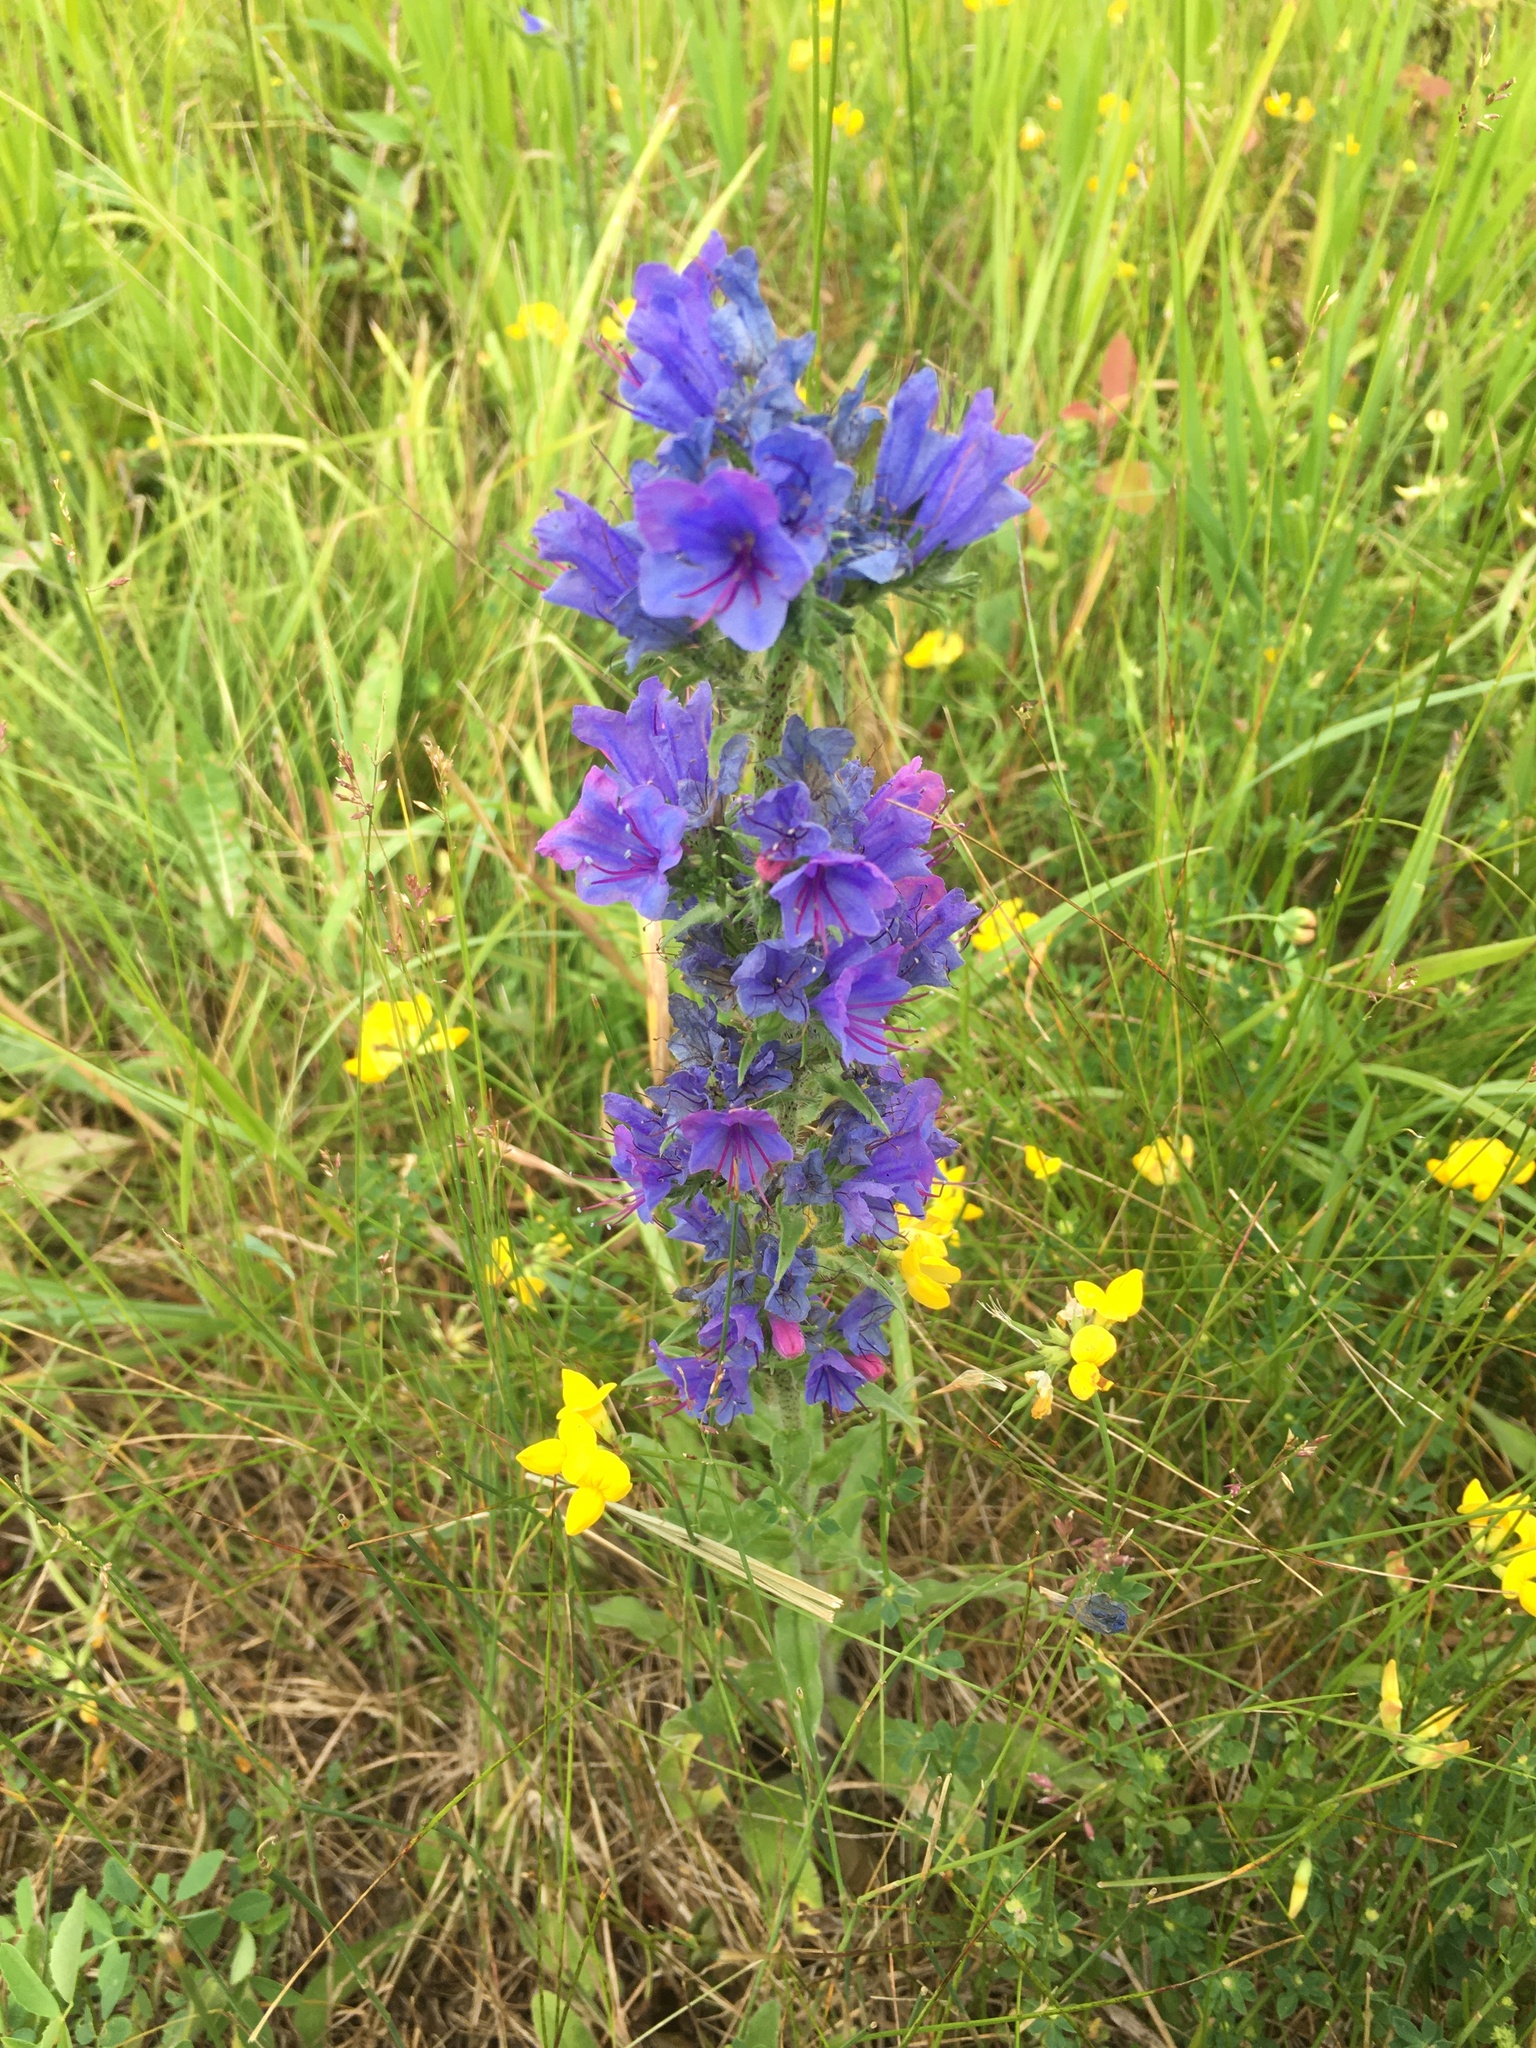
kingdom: Plantae
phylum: Tracheophyta
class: Magnoliopsida
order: Boraginales
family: Boraginaceae
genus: Echium
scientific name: Echium vulgare
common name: Common viper's bugloss
